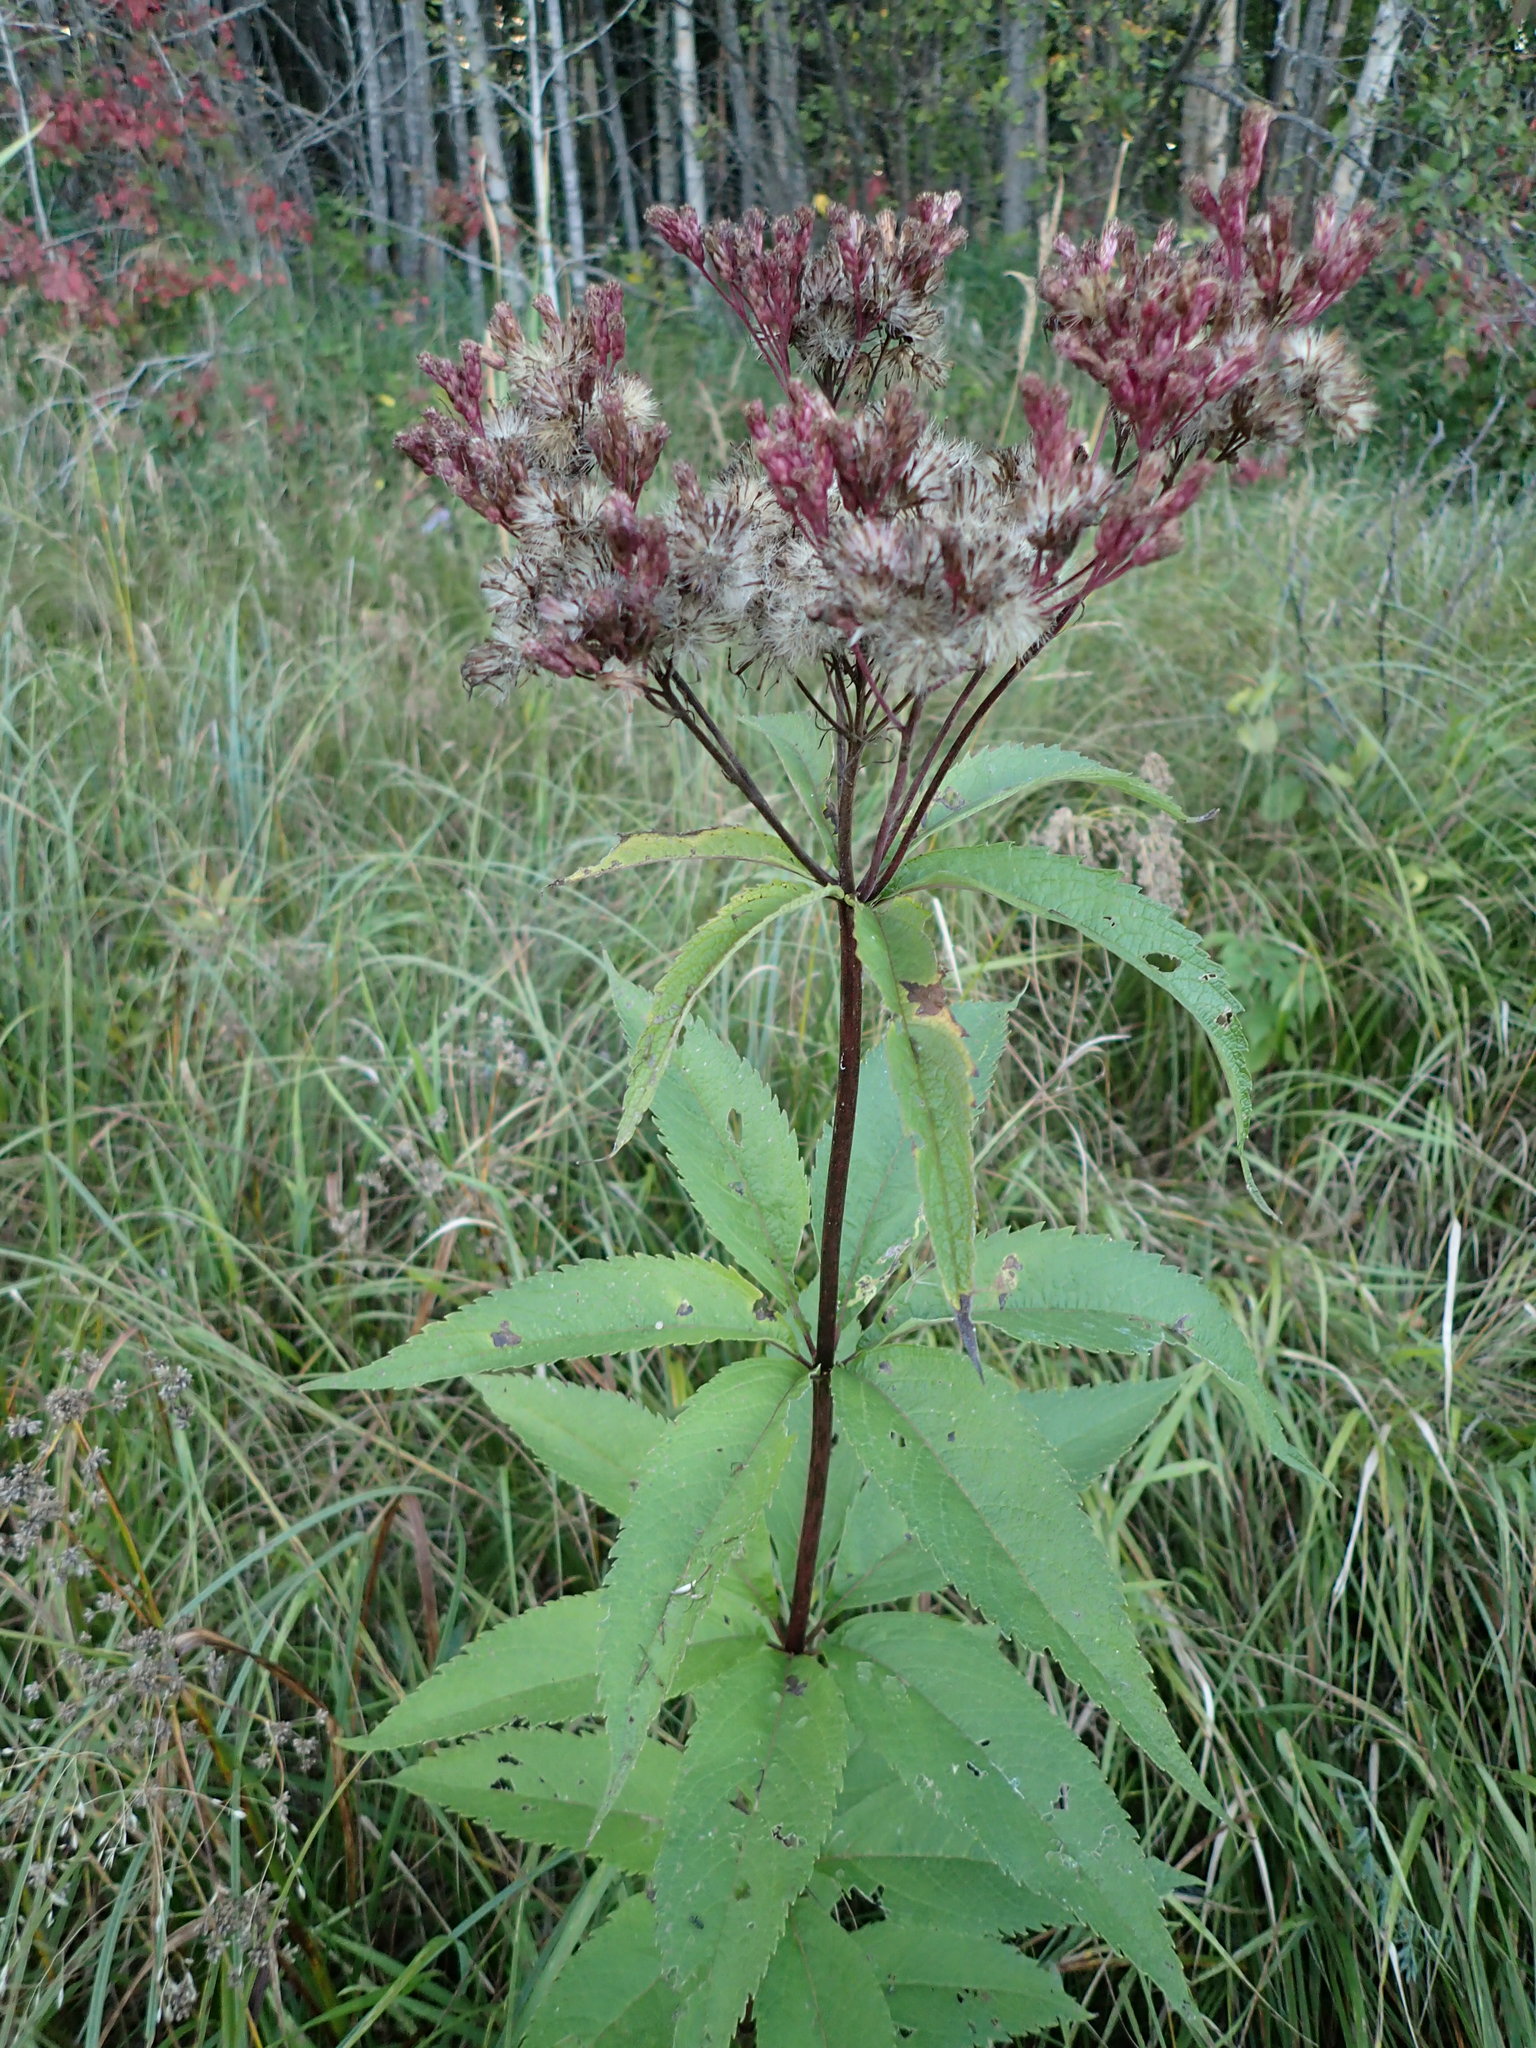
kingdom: Plantae
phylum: Tracheophyta
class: Magnoliopsida
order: Asterales
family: Asteraceae
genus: Eutrochium
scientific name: Eutrochium maculatum
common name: Spotted joe pye weed
